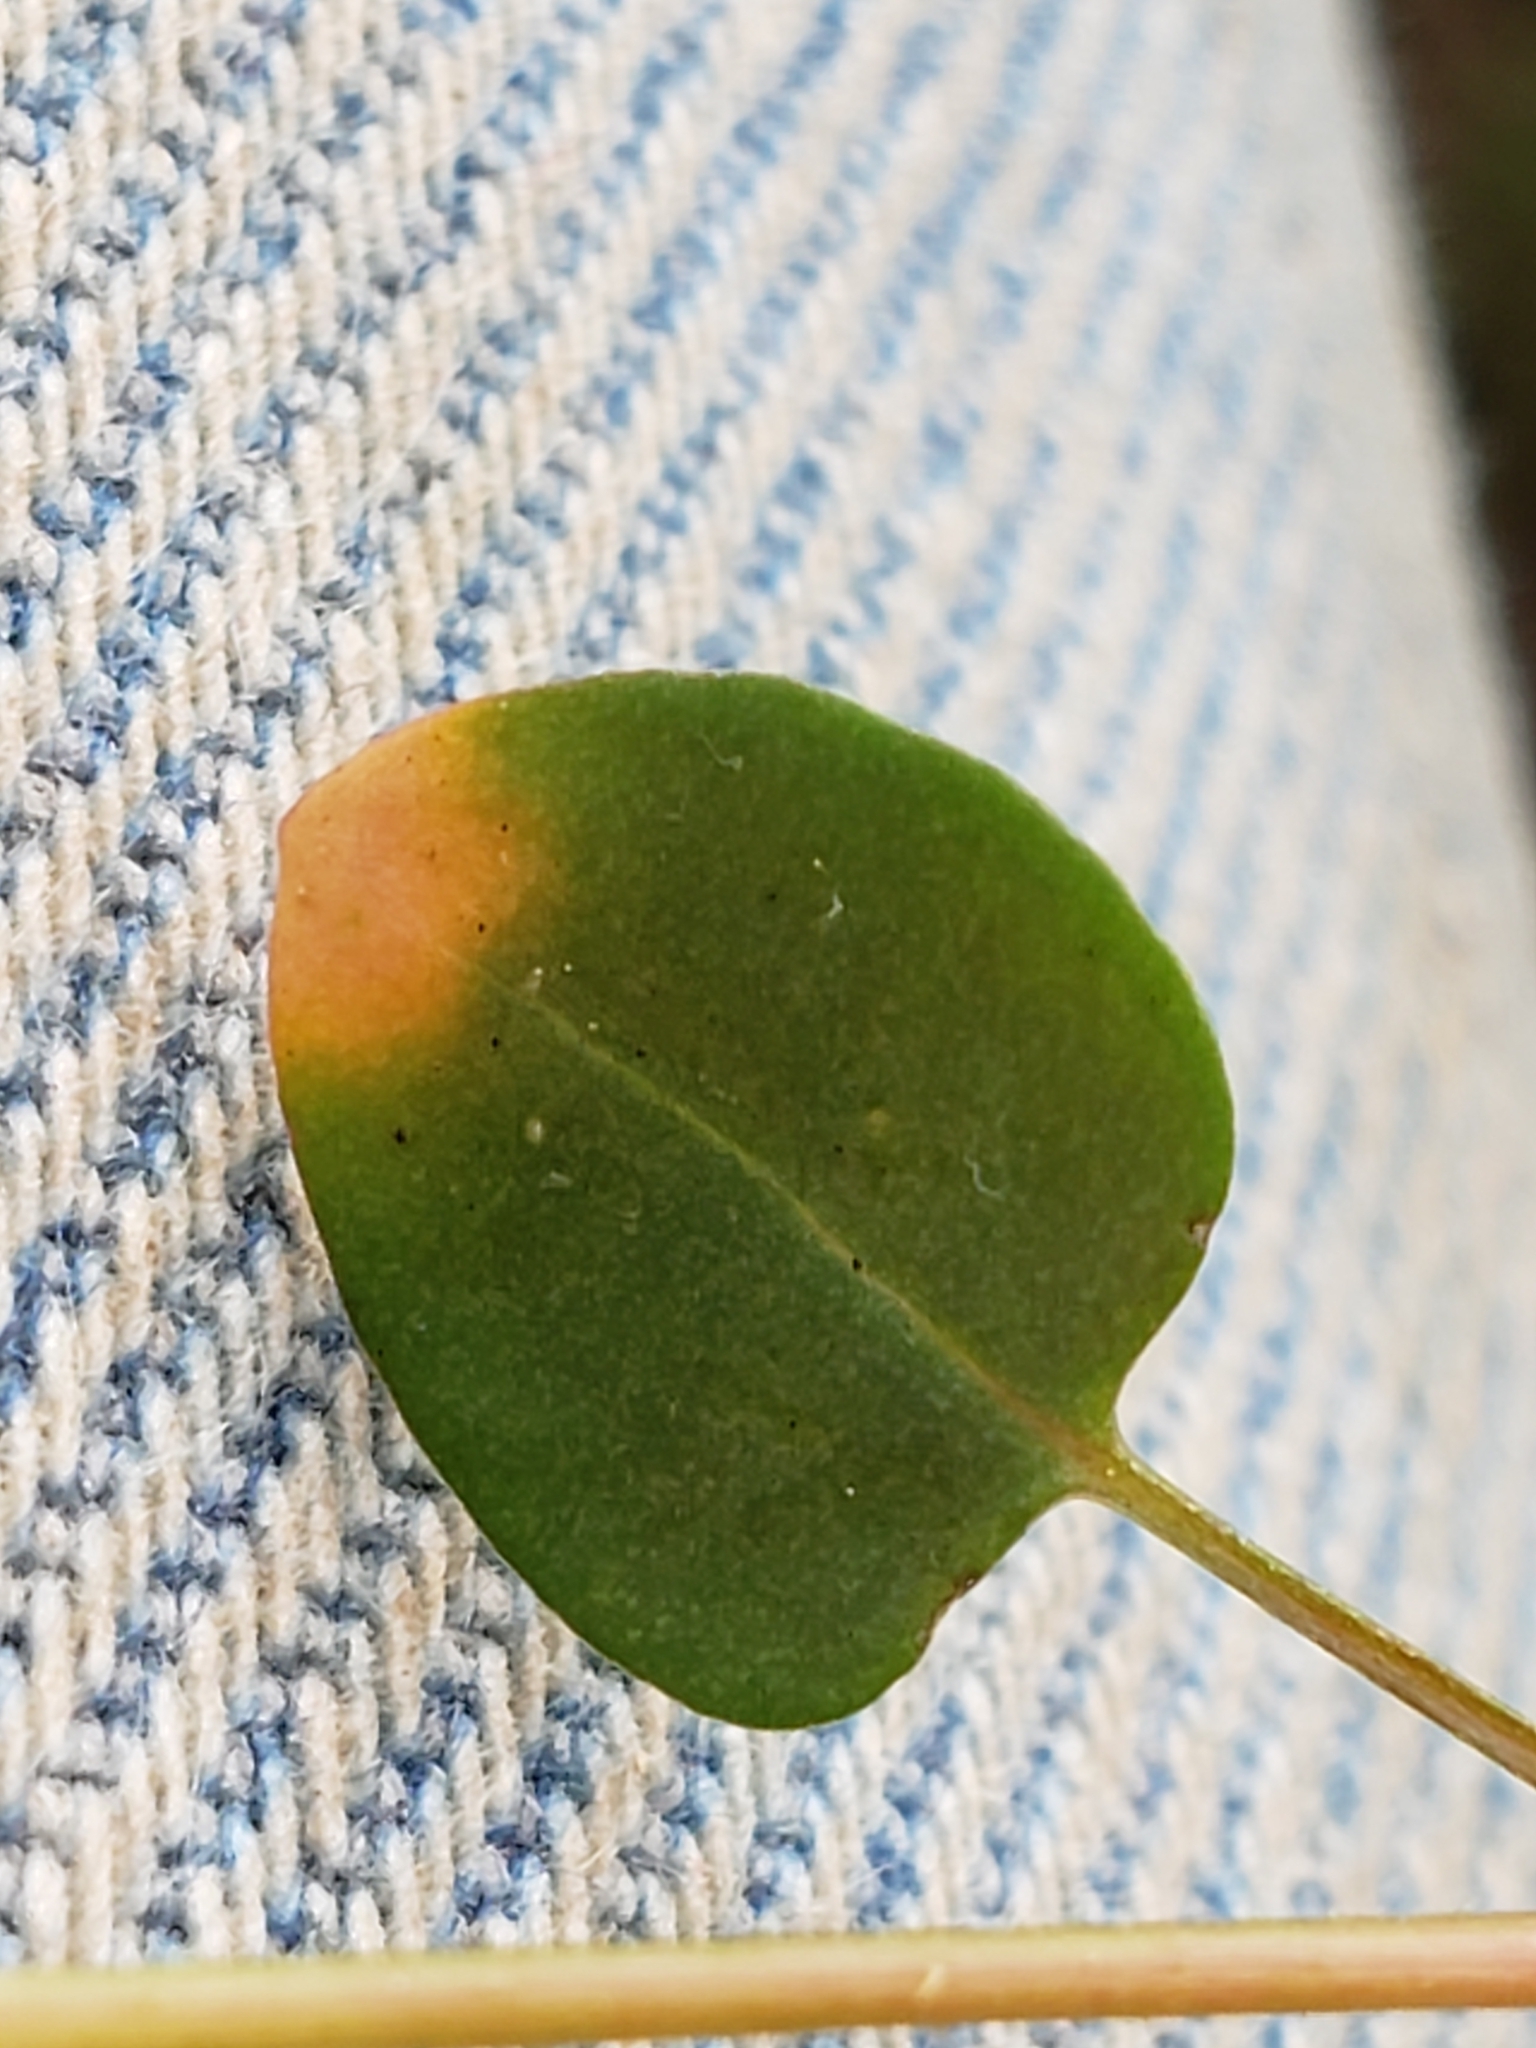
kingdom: Plantae
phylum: Tracheophyta
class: Magnoliopsida
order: Caryophyllales
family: Polygonaceae
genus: Persicaria
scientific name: Persicaria sagittata
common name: American tearthumb
